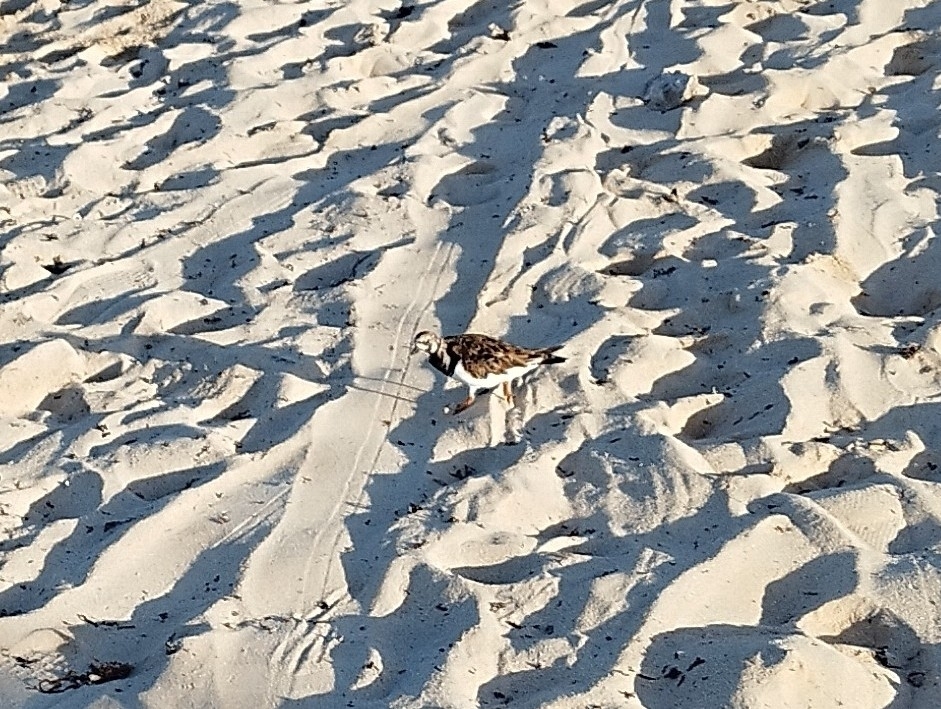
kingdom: Animalia
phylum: Chordata
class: Aves
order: Charadriiformes
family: Scolopacidae
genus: Calidris
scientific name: Calidris alba
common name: Sanderling
